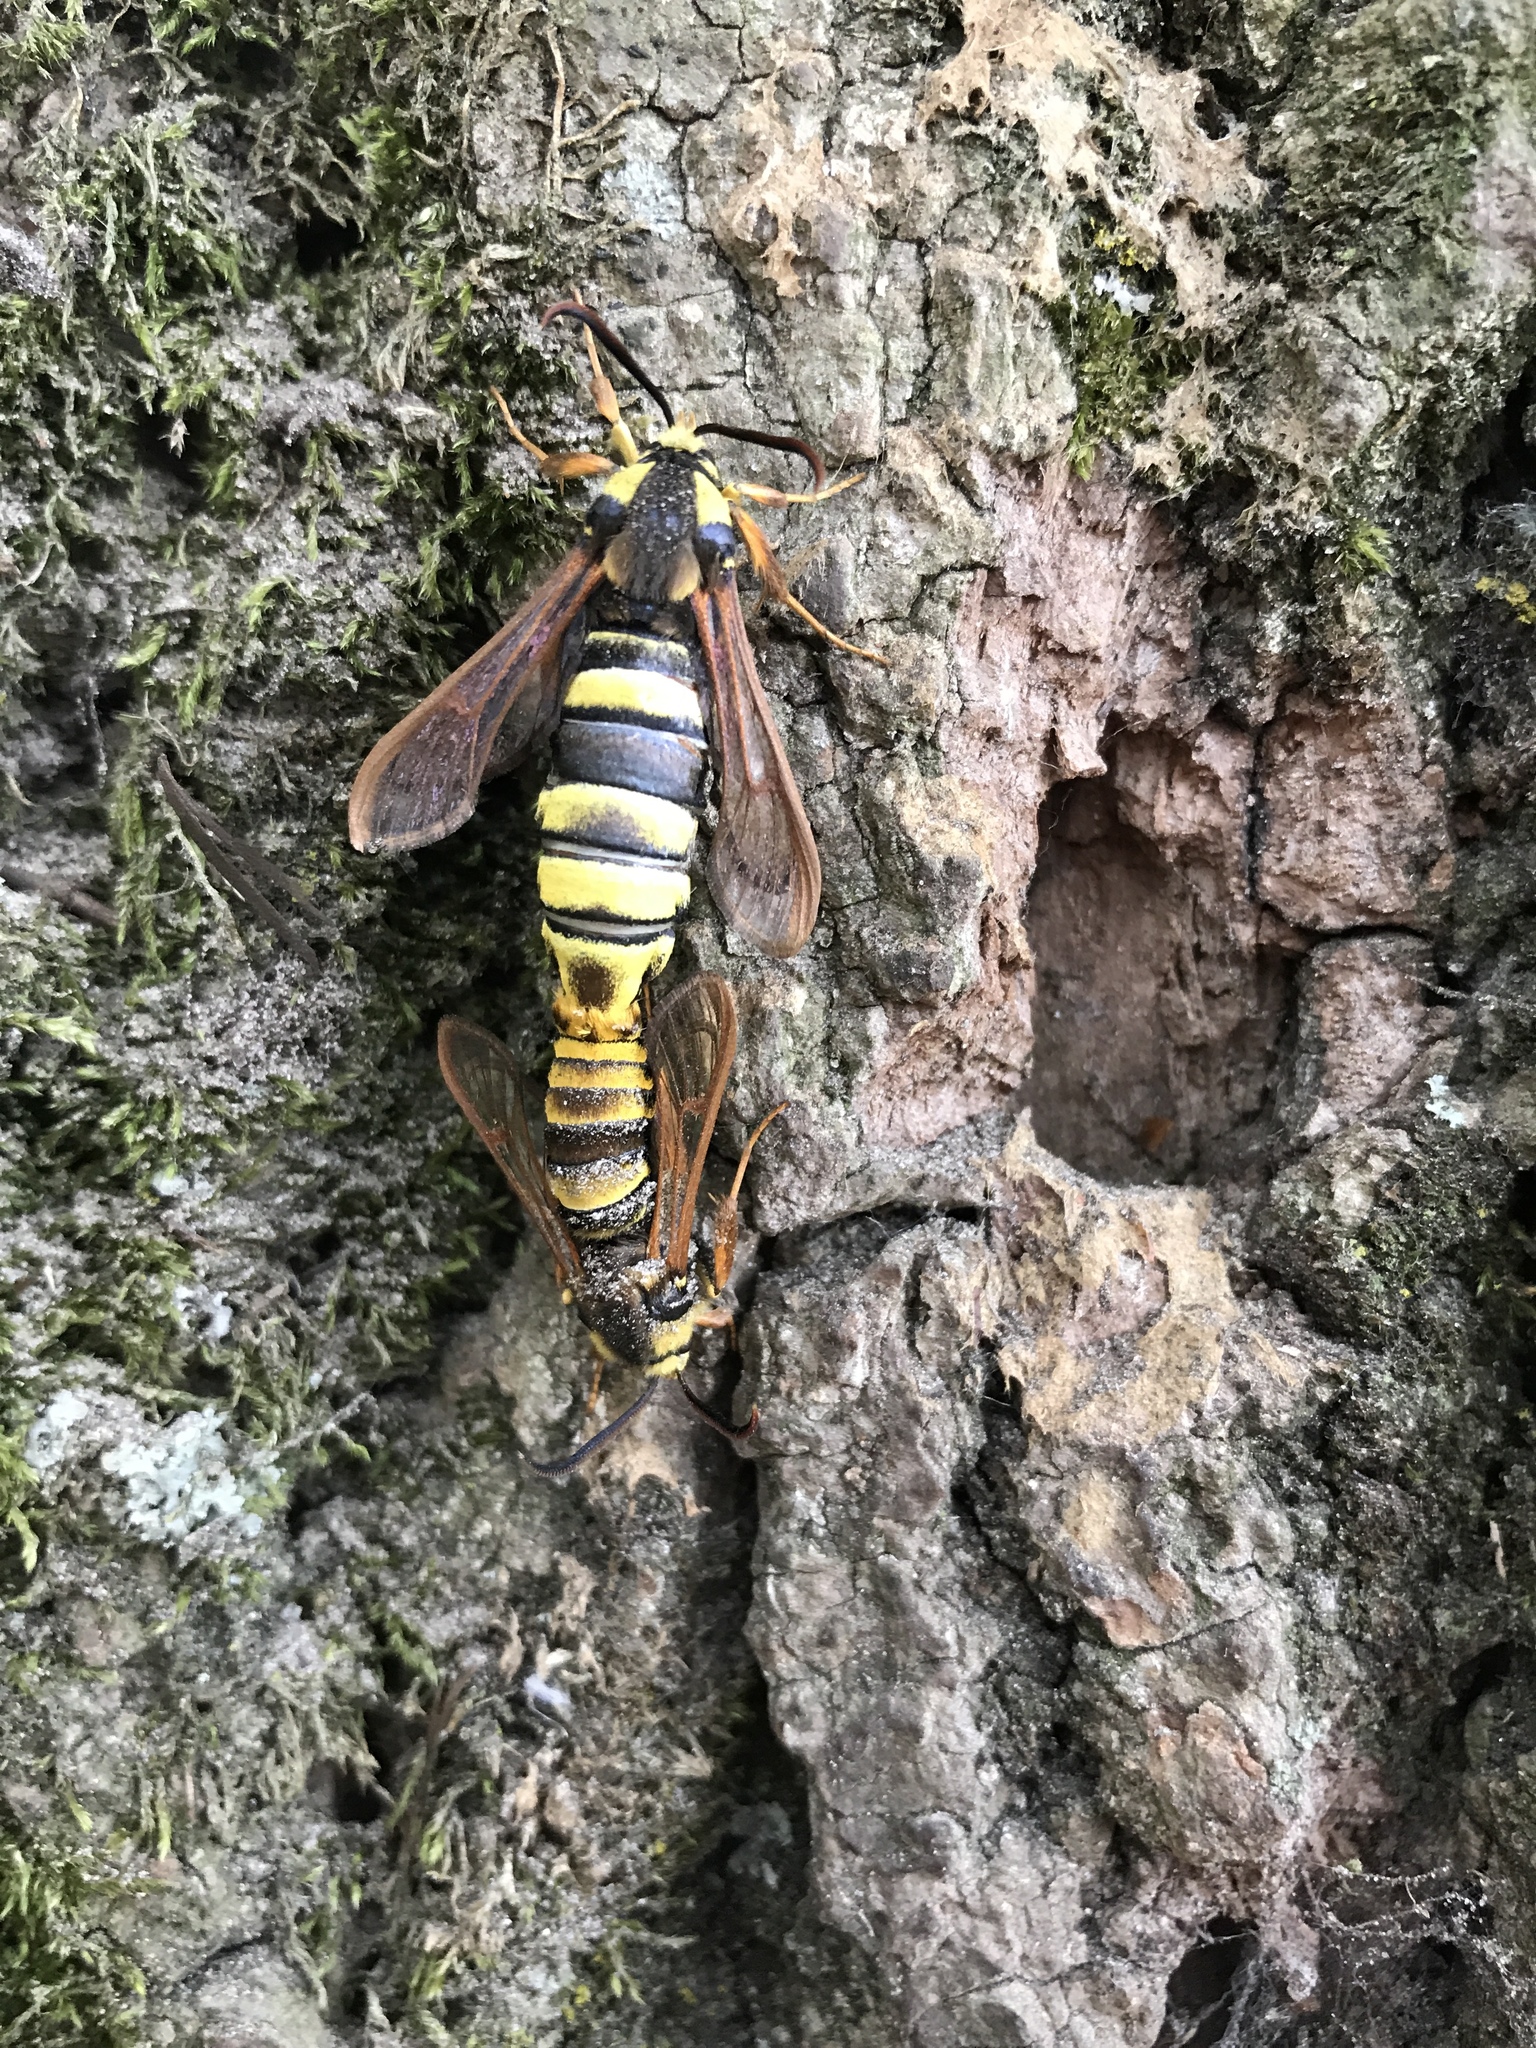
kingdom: Animalia
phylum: Arthropoda
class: Insecta
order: Lepidoptera
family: Sesiidae
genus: Sesia
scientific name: Sesia apiformis
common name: Hornet moth
